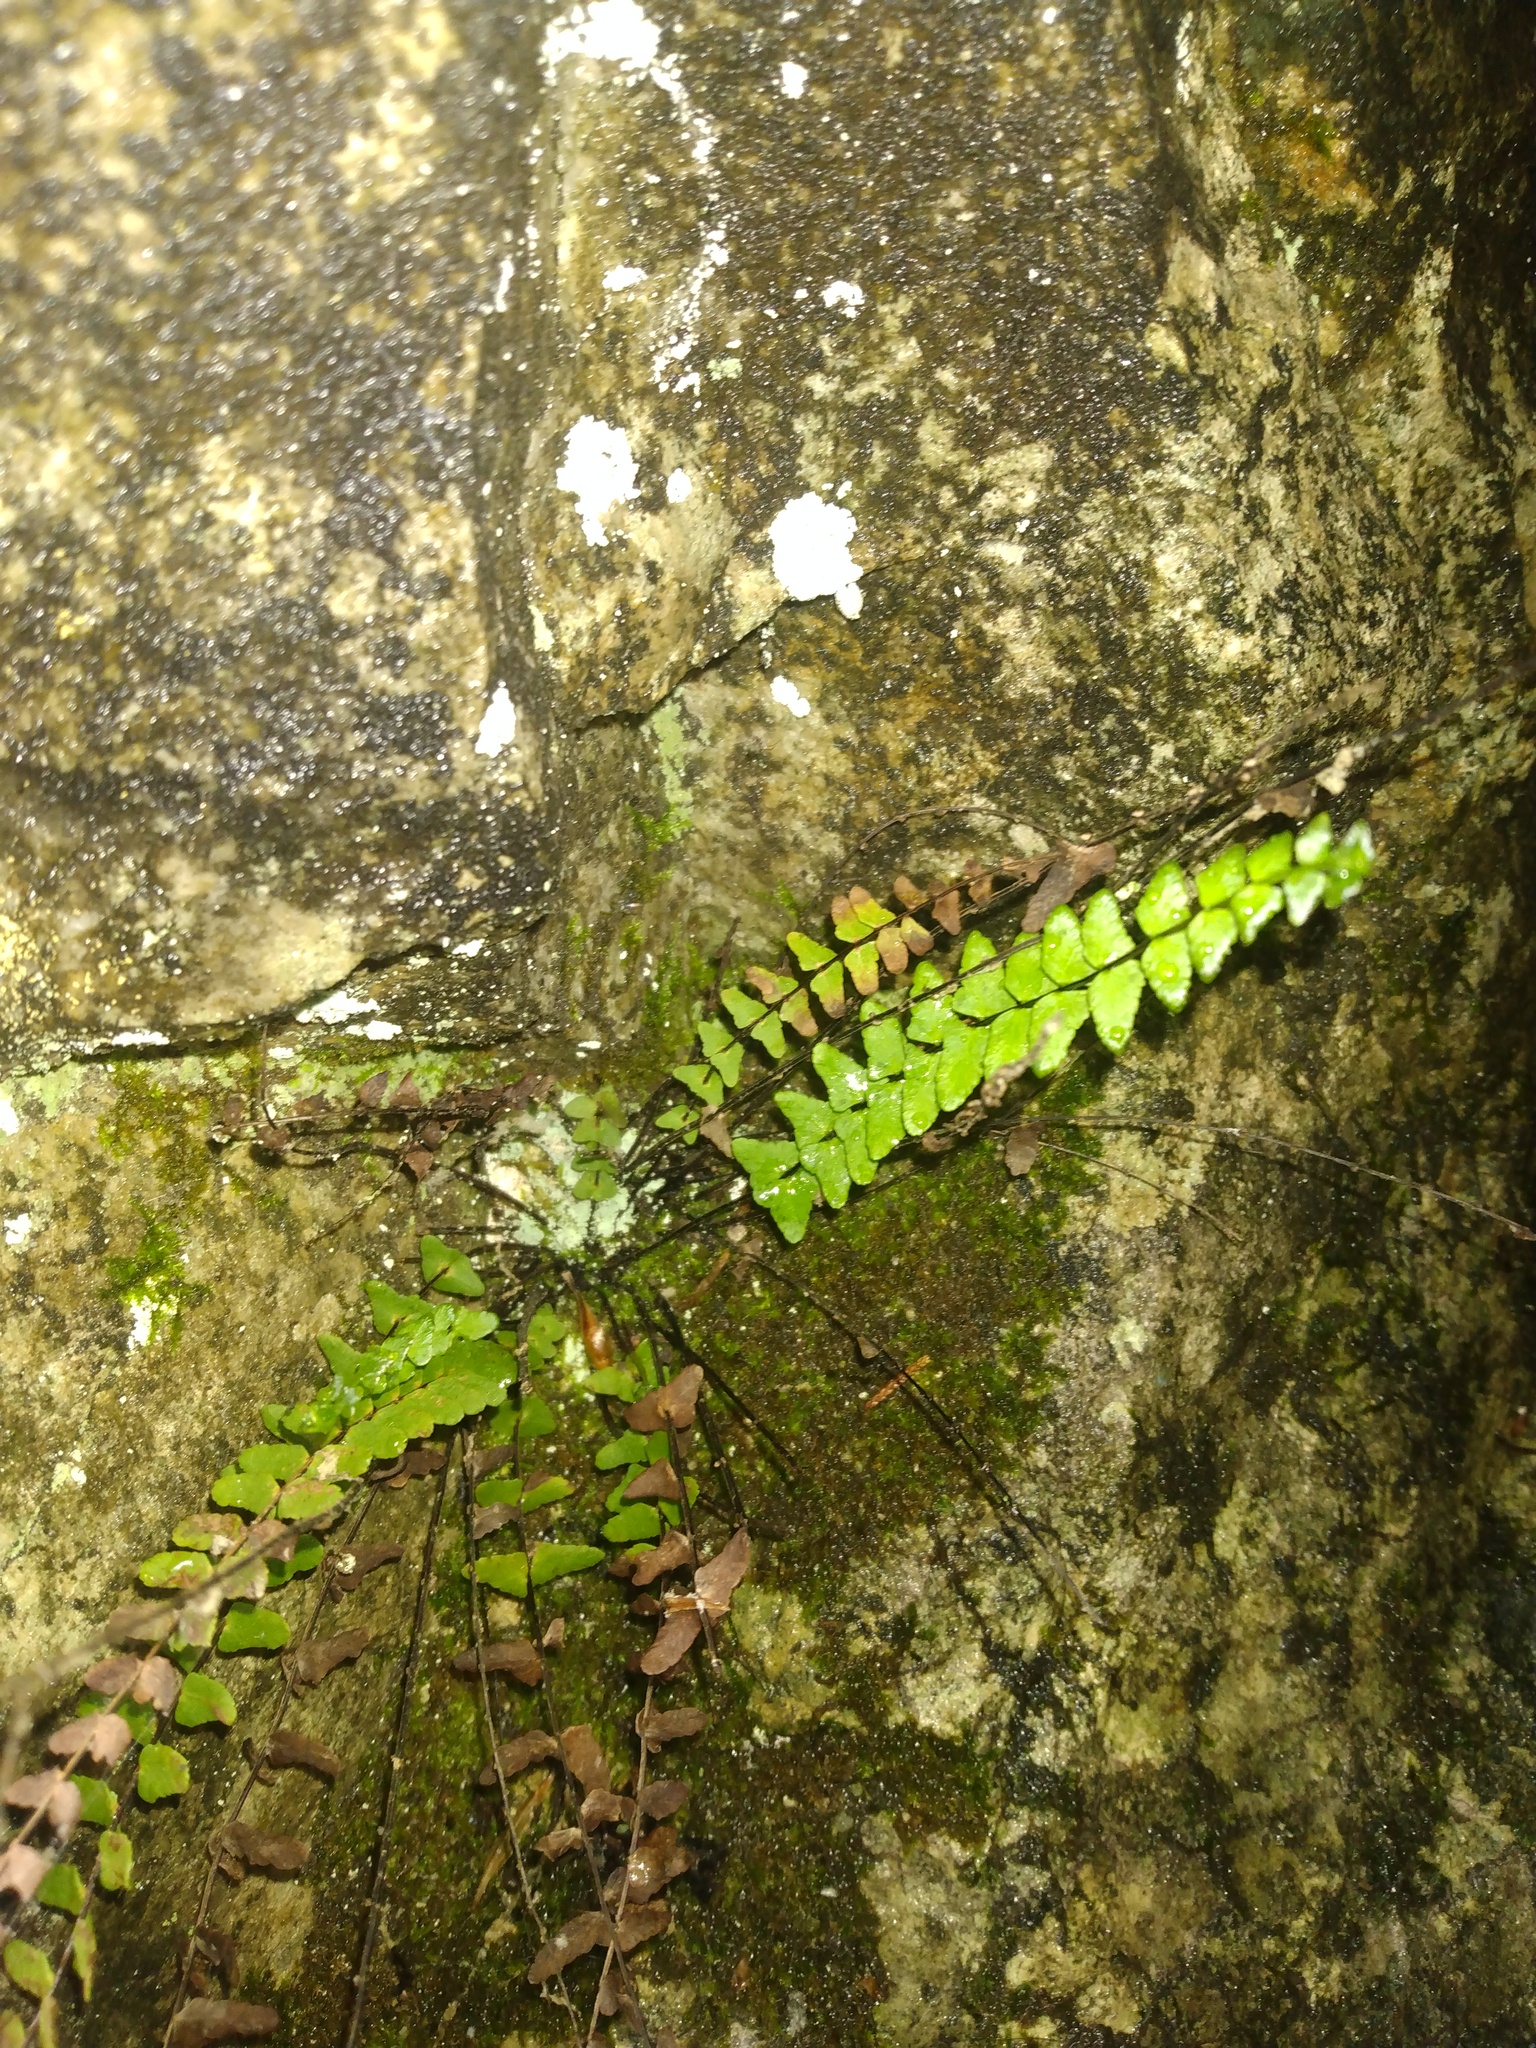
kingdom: Plantae
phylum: Tracheophyta
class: Polypodiopsida
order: Polypodiales
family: Aspleniaceae
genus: Asplenium
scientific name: Asplenium resiliens
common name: Blackstem spleenwort
